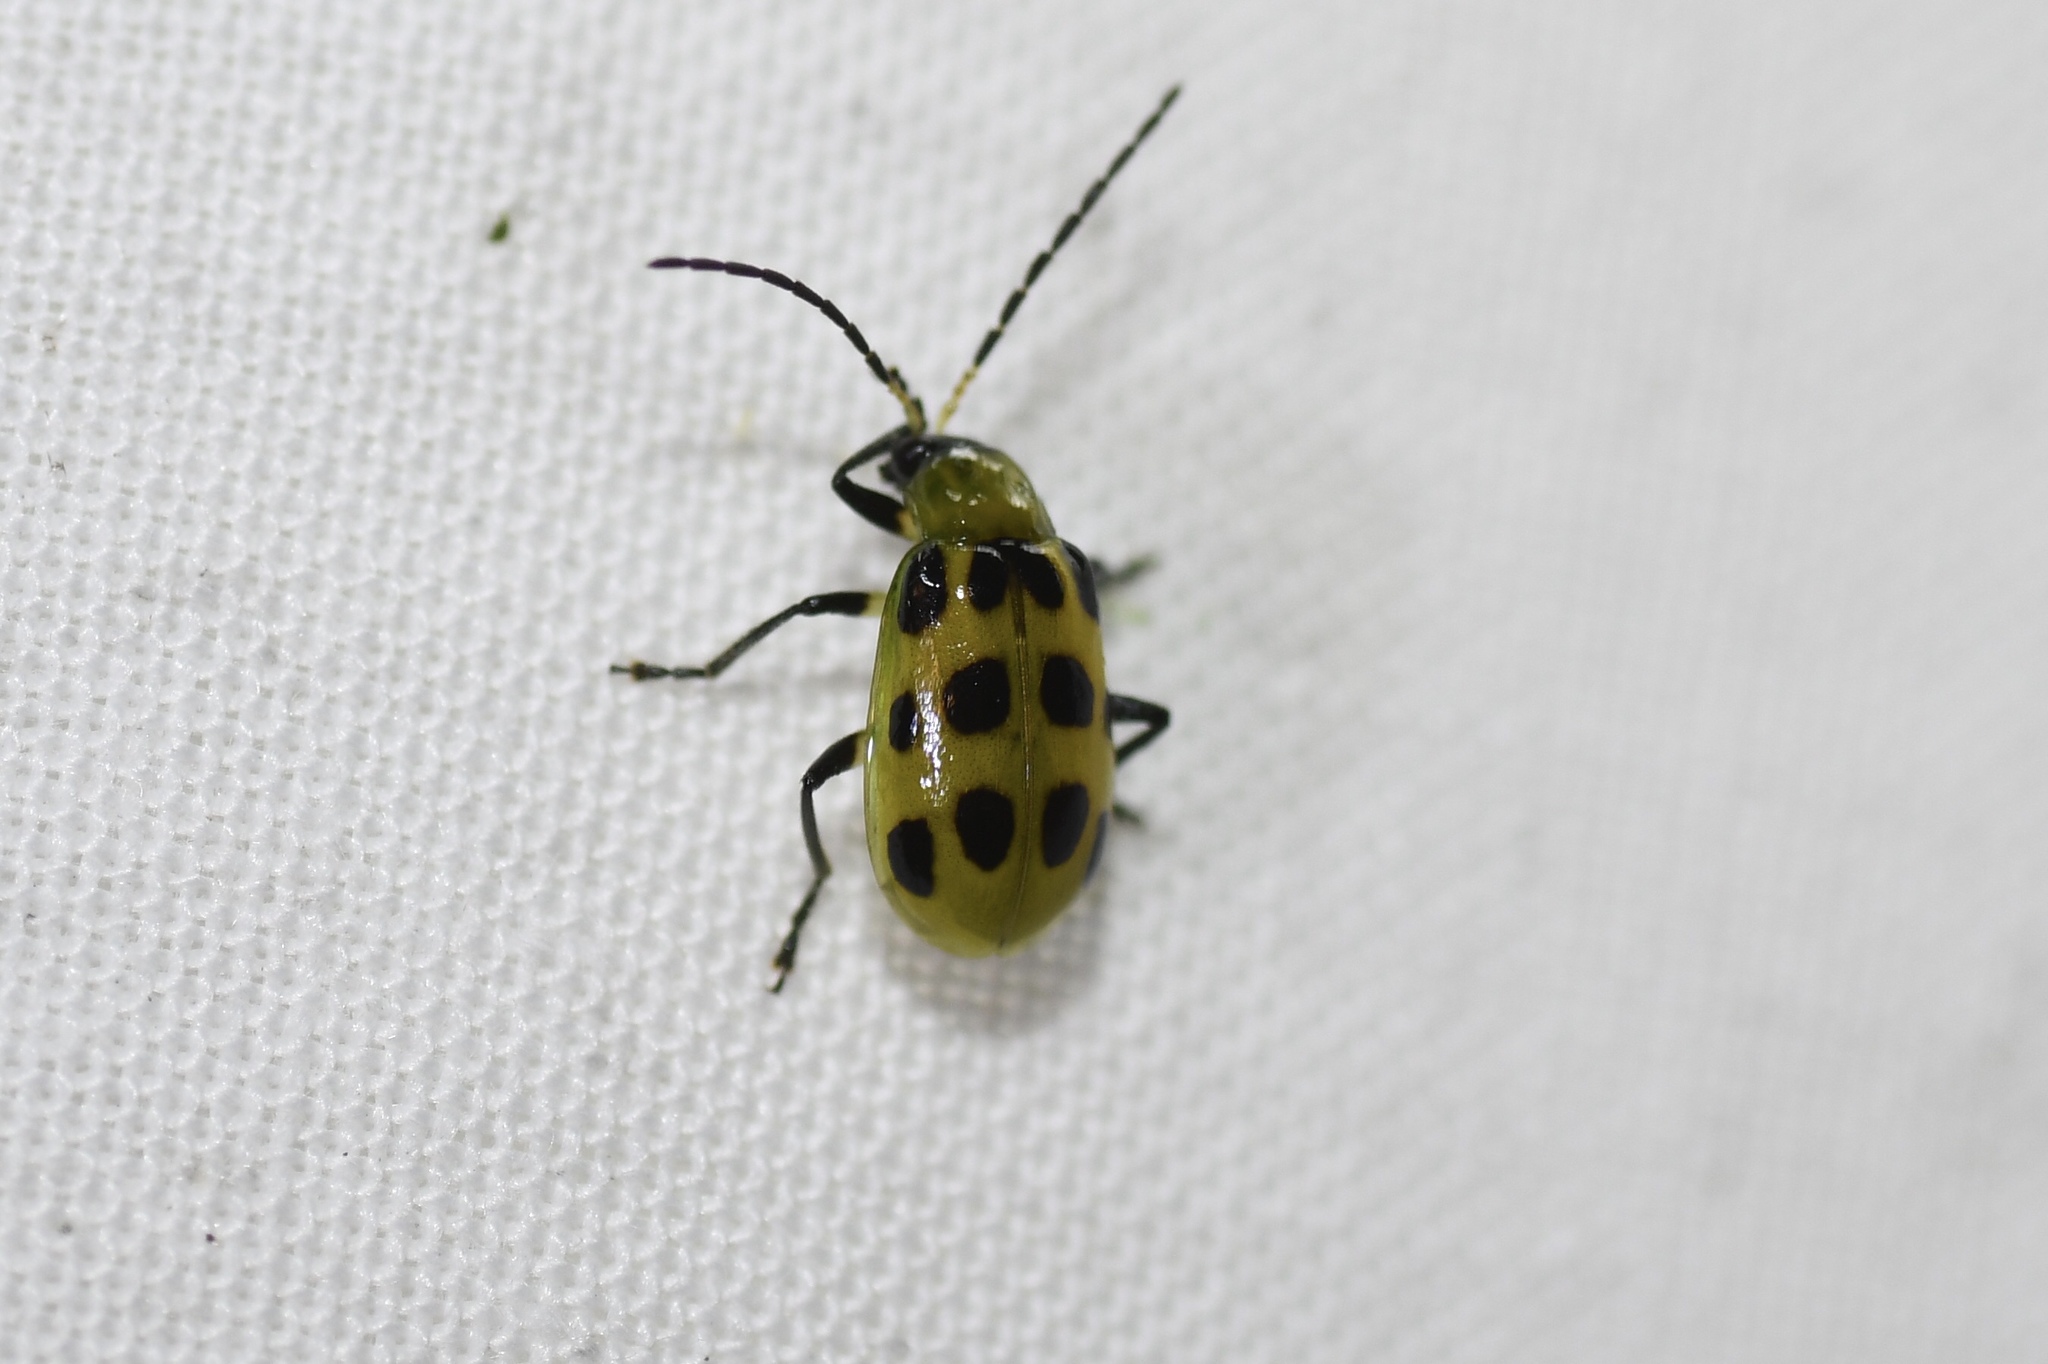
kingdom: Animalia
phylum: Arthropoda
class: Insecta
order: Coleoptera
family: Chrysomelidae
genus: Diabrotica
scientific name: Diabrotica undecimpunctata
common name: Spotted cucumber beetle
